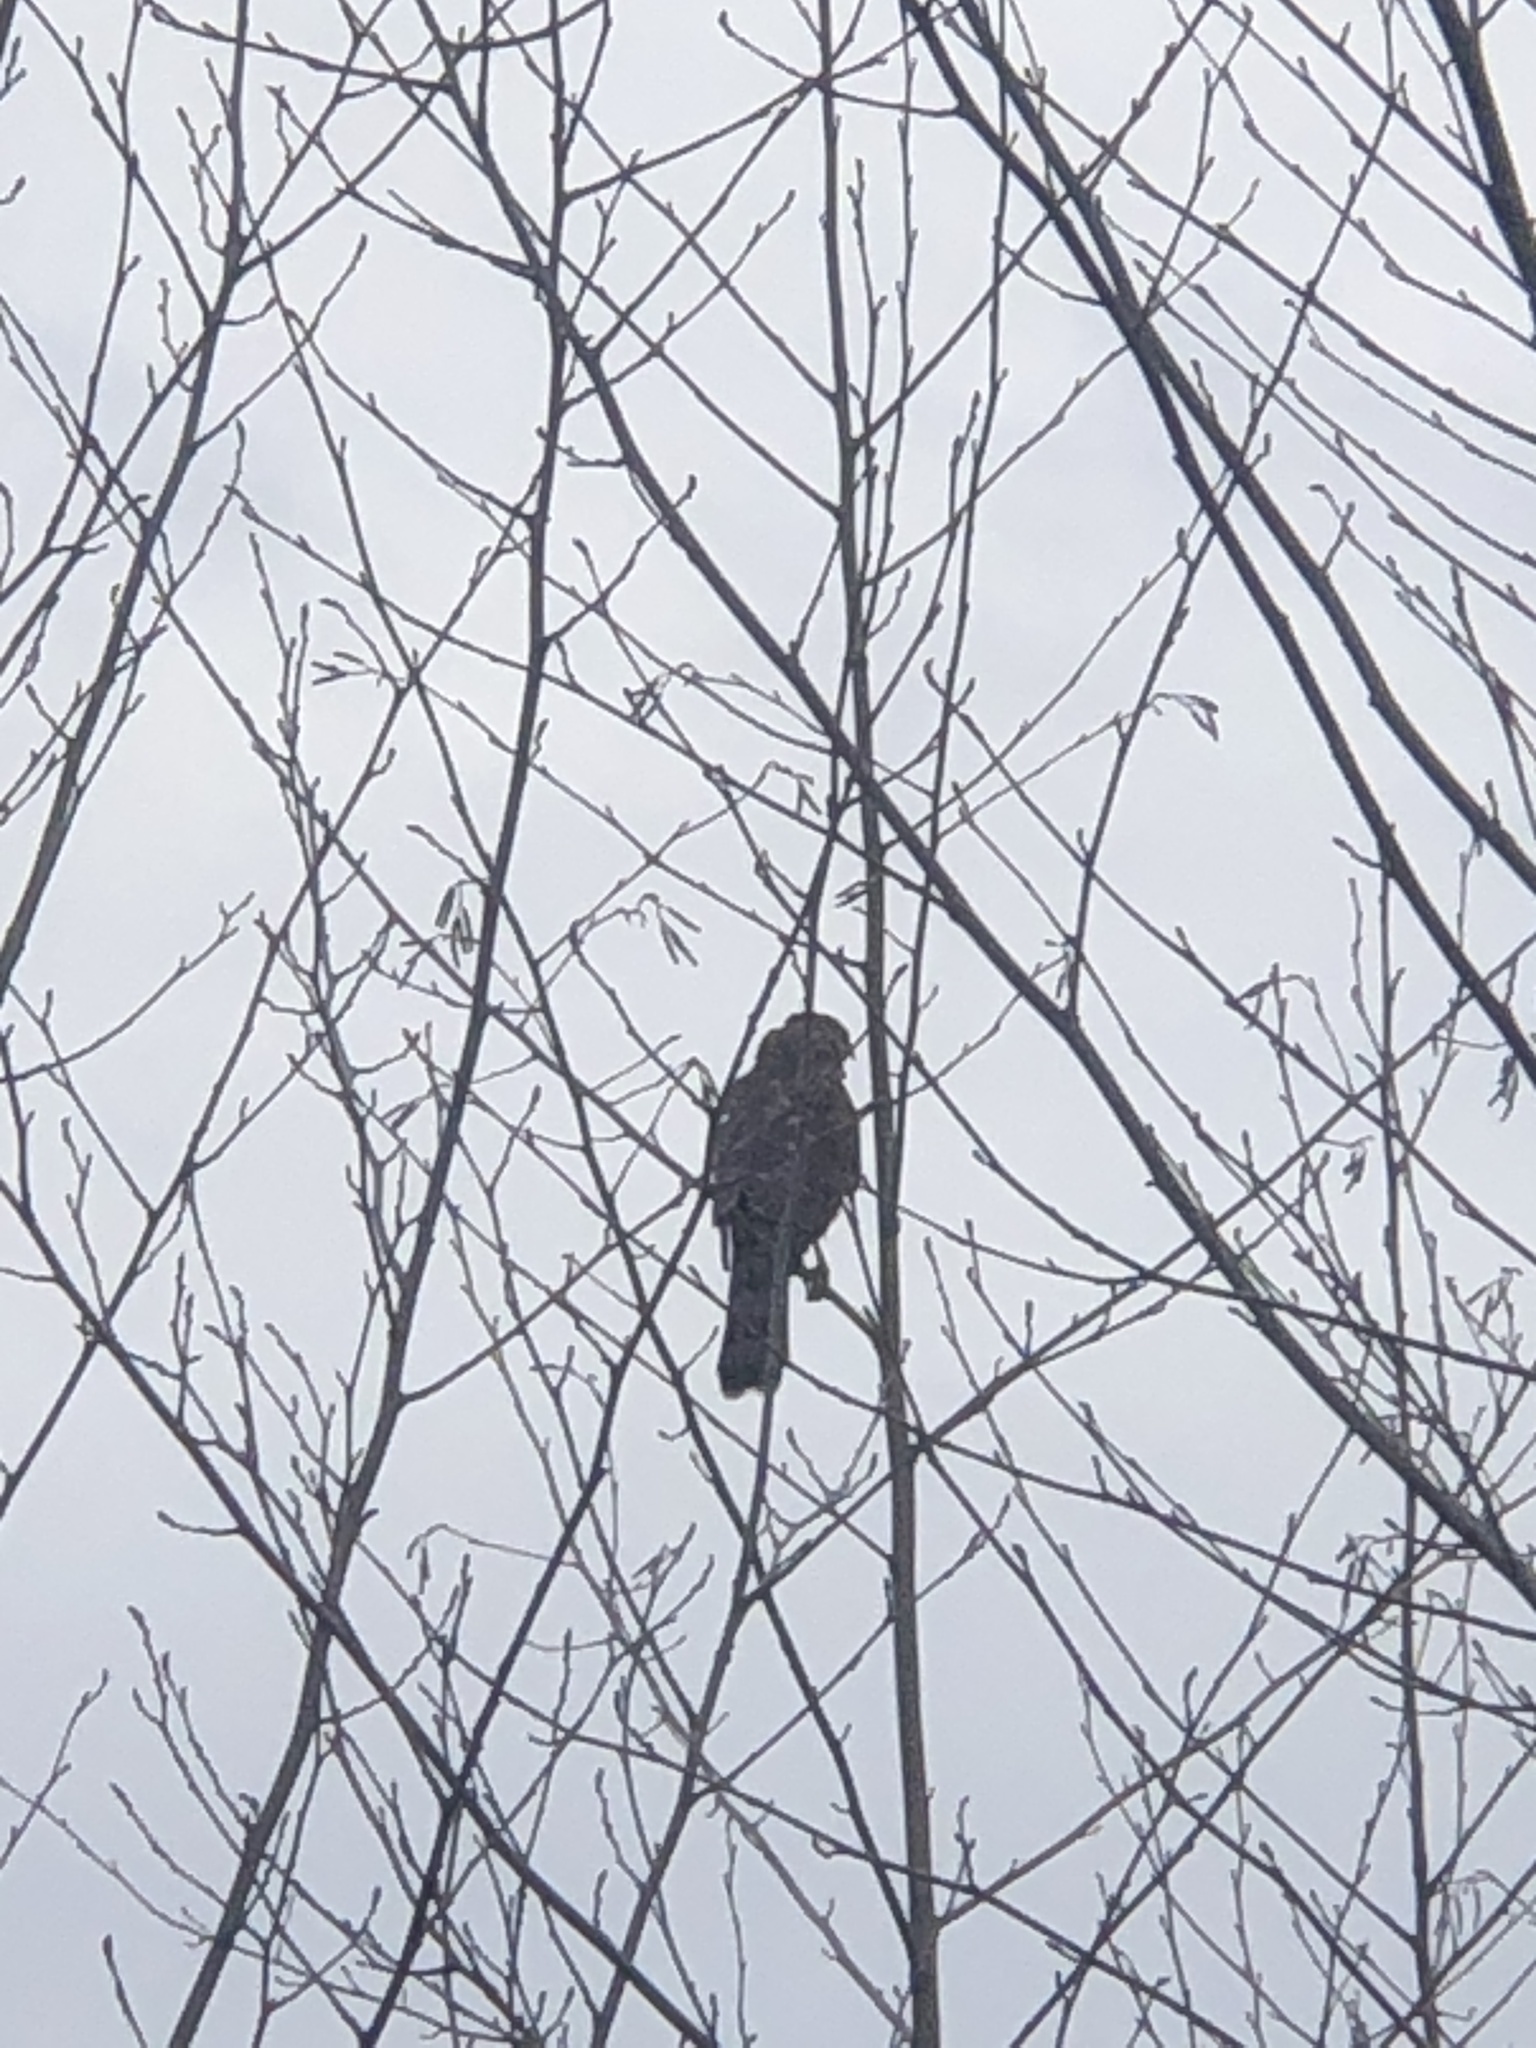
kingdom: Animalia
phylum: Chordata
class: Aves
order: Accipitriformes
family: Accipitridae
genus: Accipiter
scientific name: Accipiter cooperii
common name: Cooper's hawk
